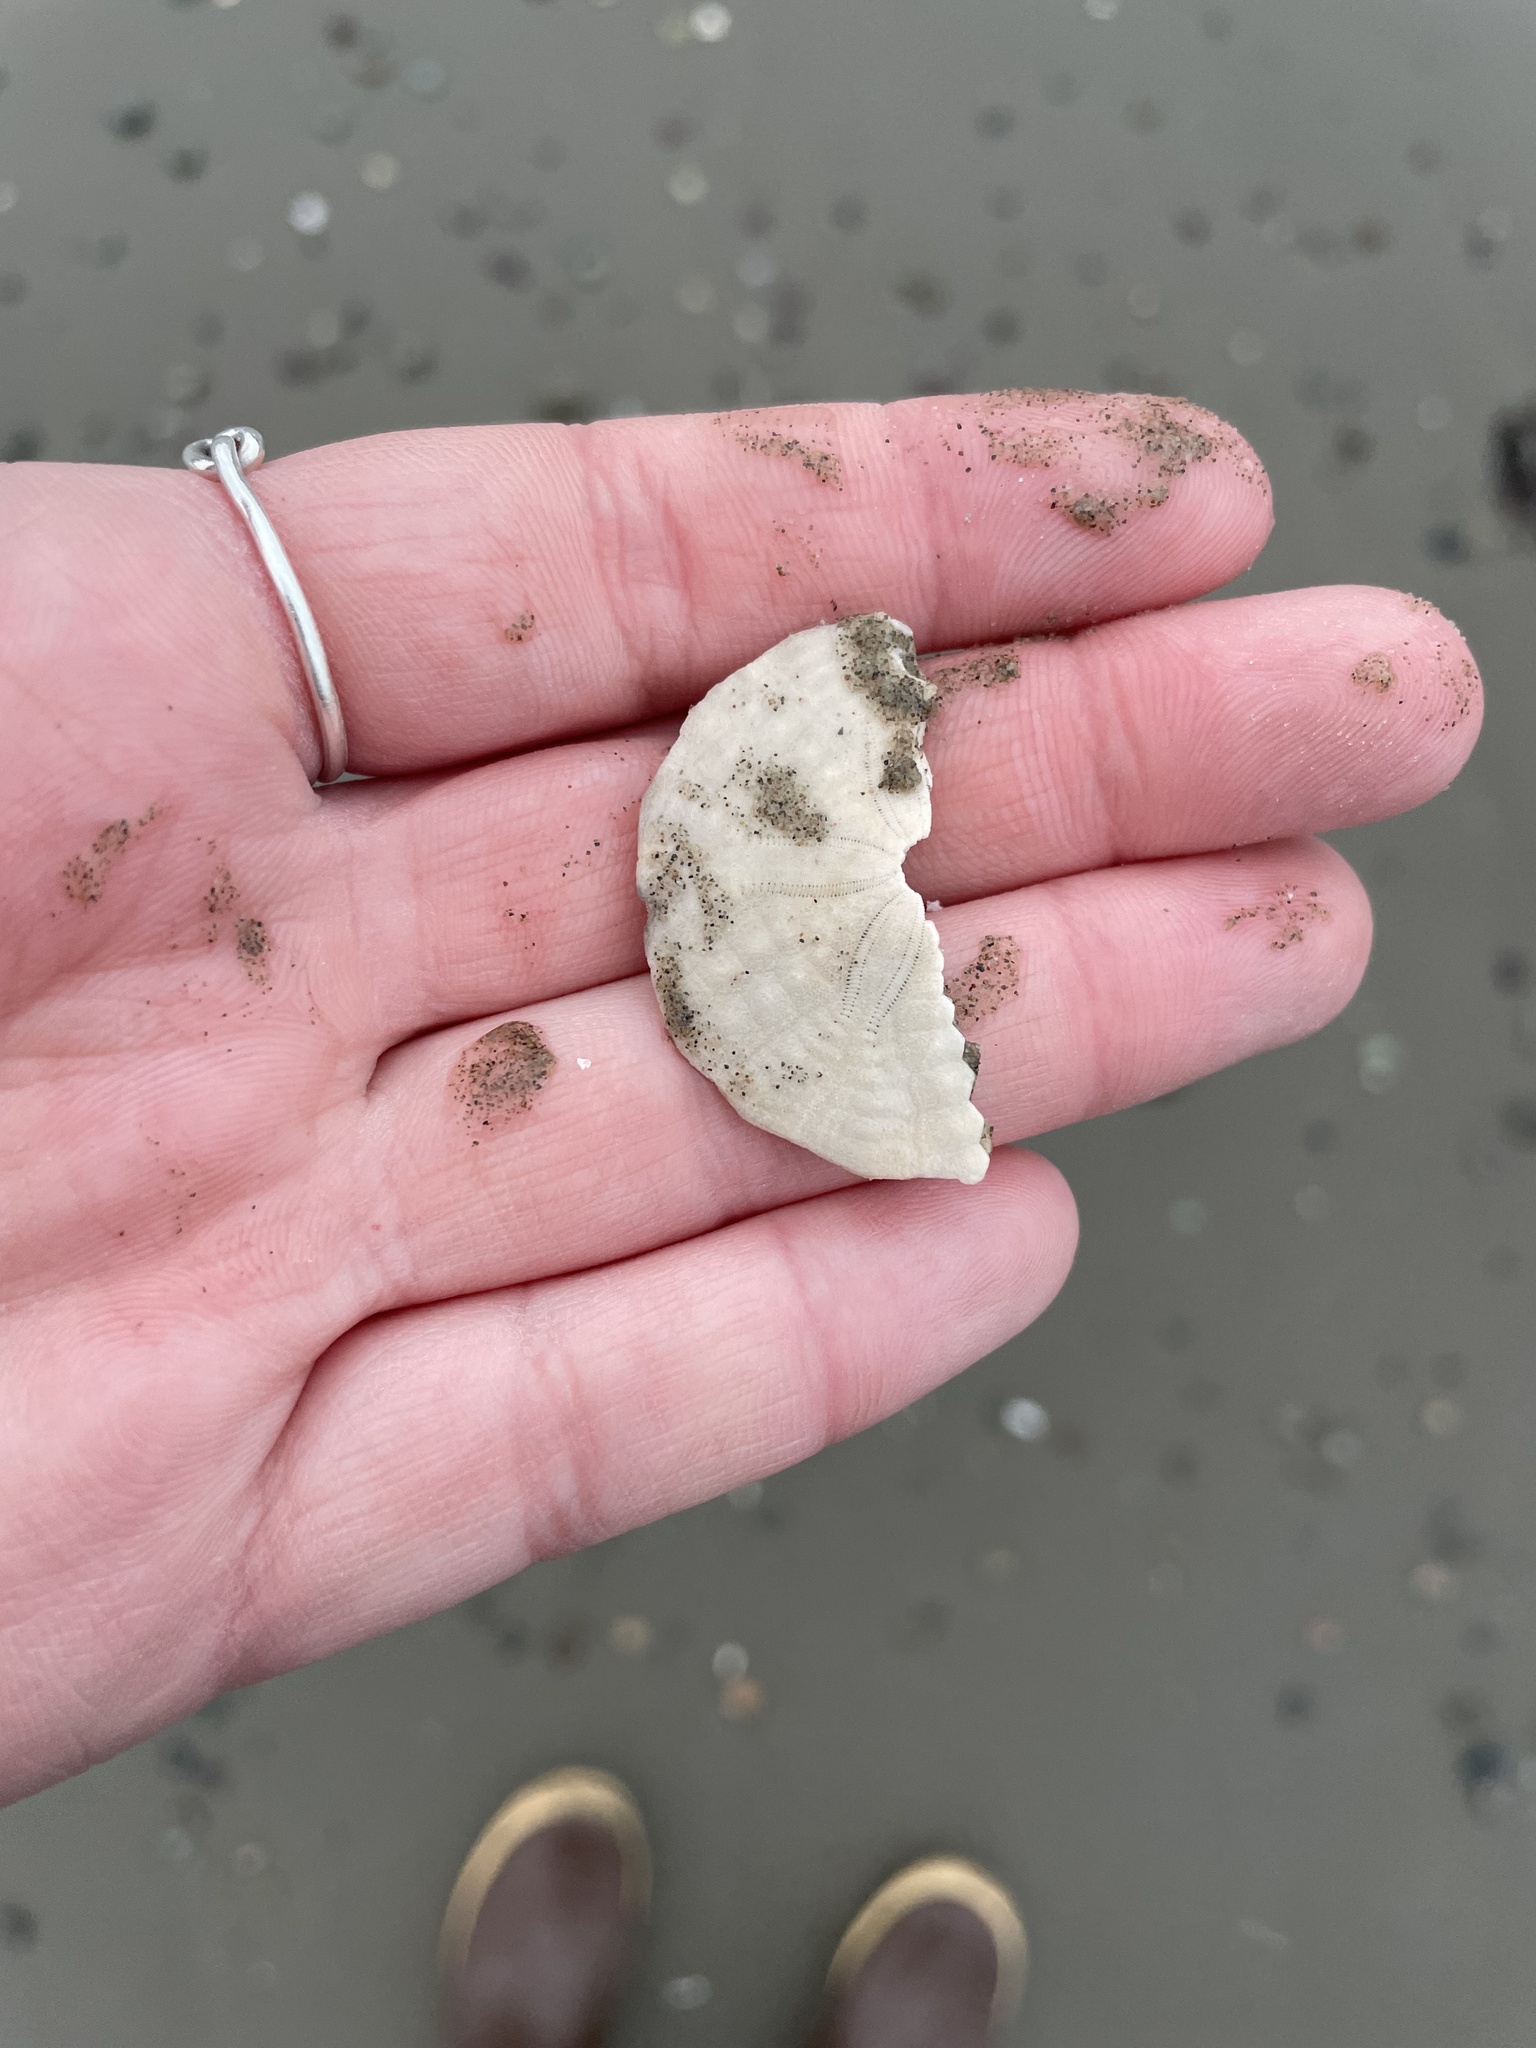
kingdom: Animalia
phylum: Echinodermata
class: Echinoidea
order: Echinolampadacea
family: Echinarachniidae
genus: Echinarachnius
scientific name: Echinarachnius parma
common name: Common sand dollar
